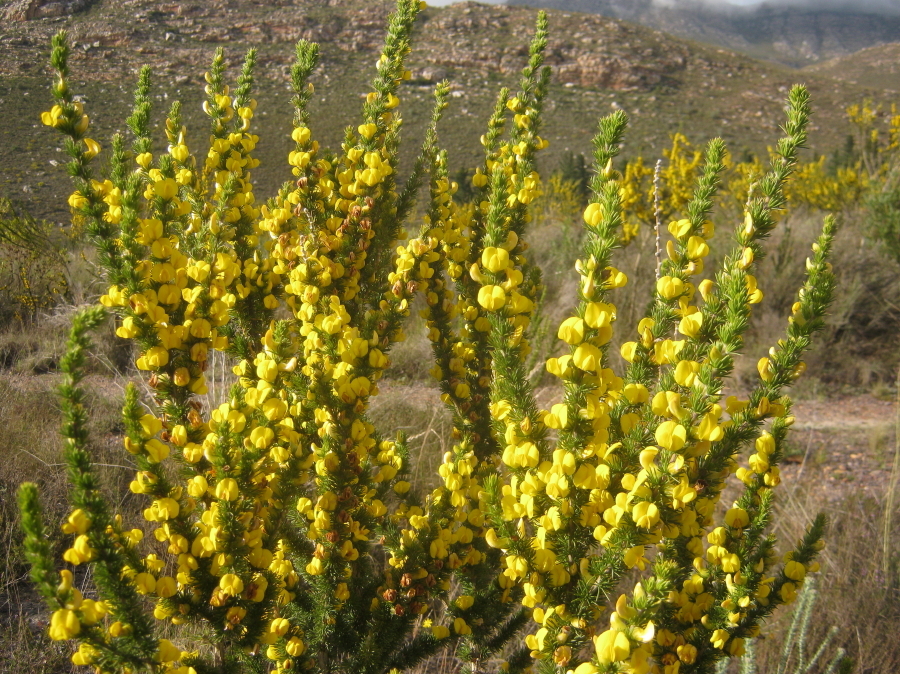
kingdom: Plantae
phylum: Tracheophyta
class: Magnoliopsida
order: Fabales
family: Fabaceae
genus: Aspalathus
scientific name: Aspalathus sceptrumaureum
